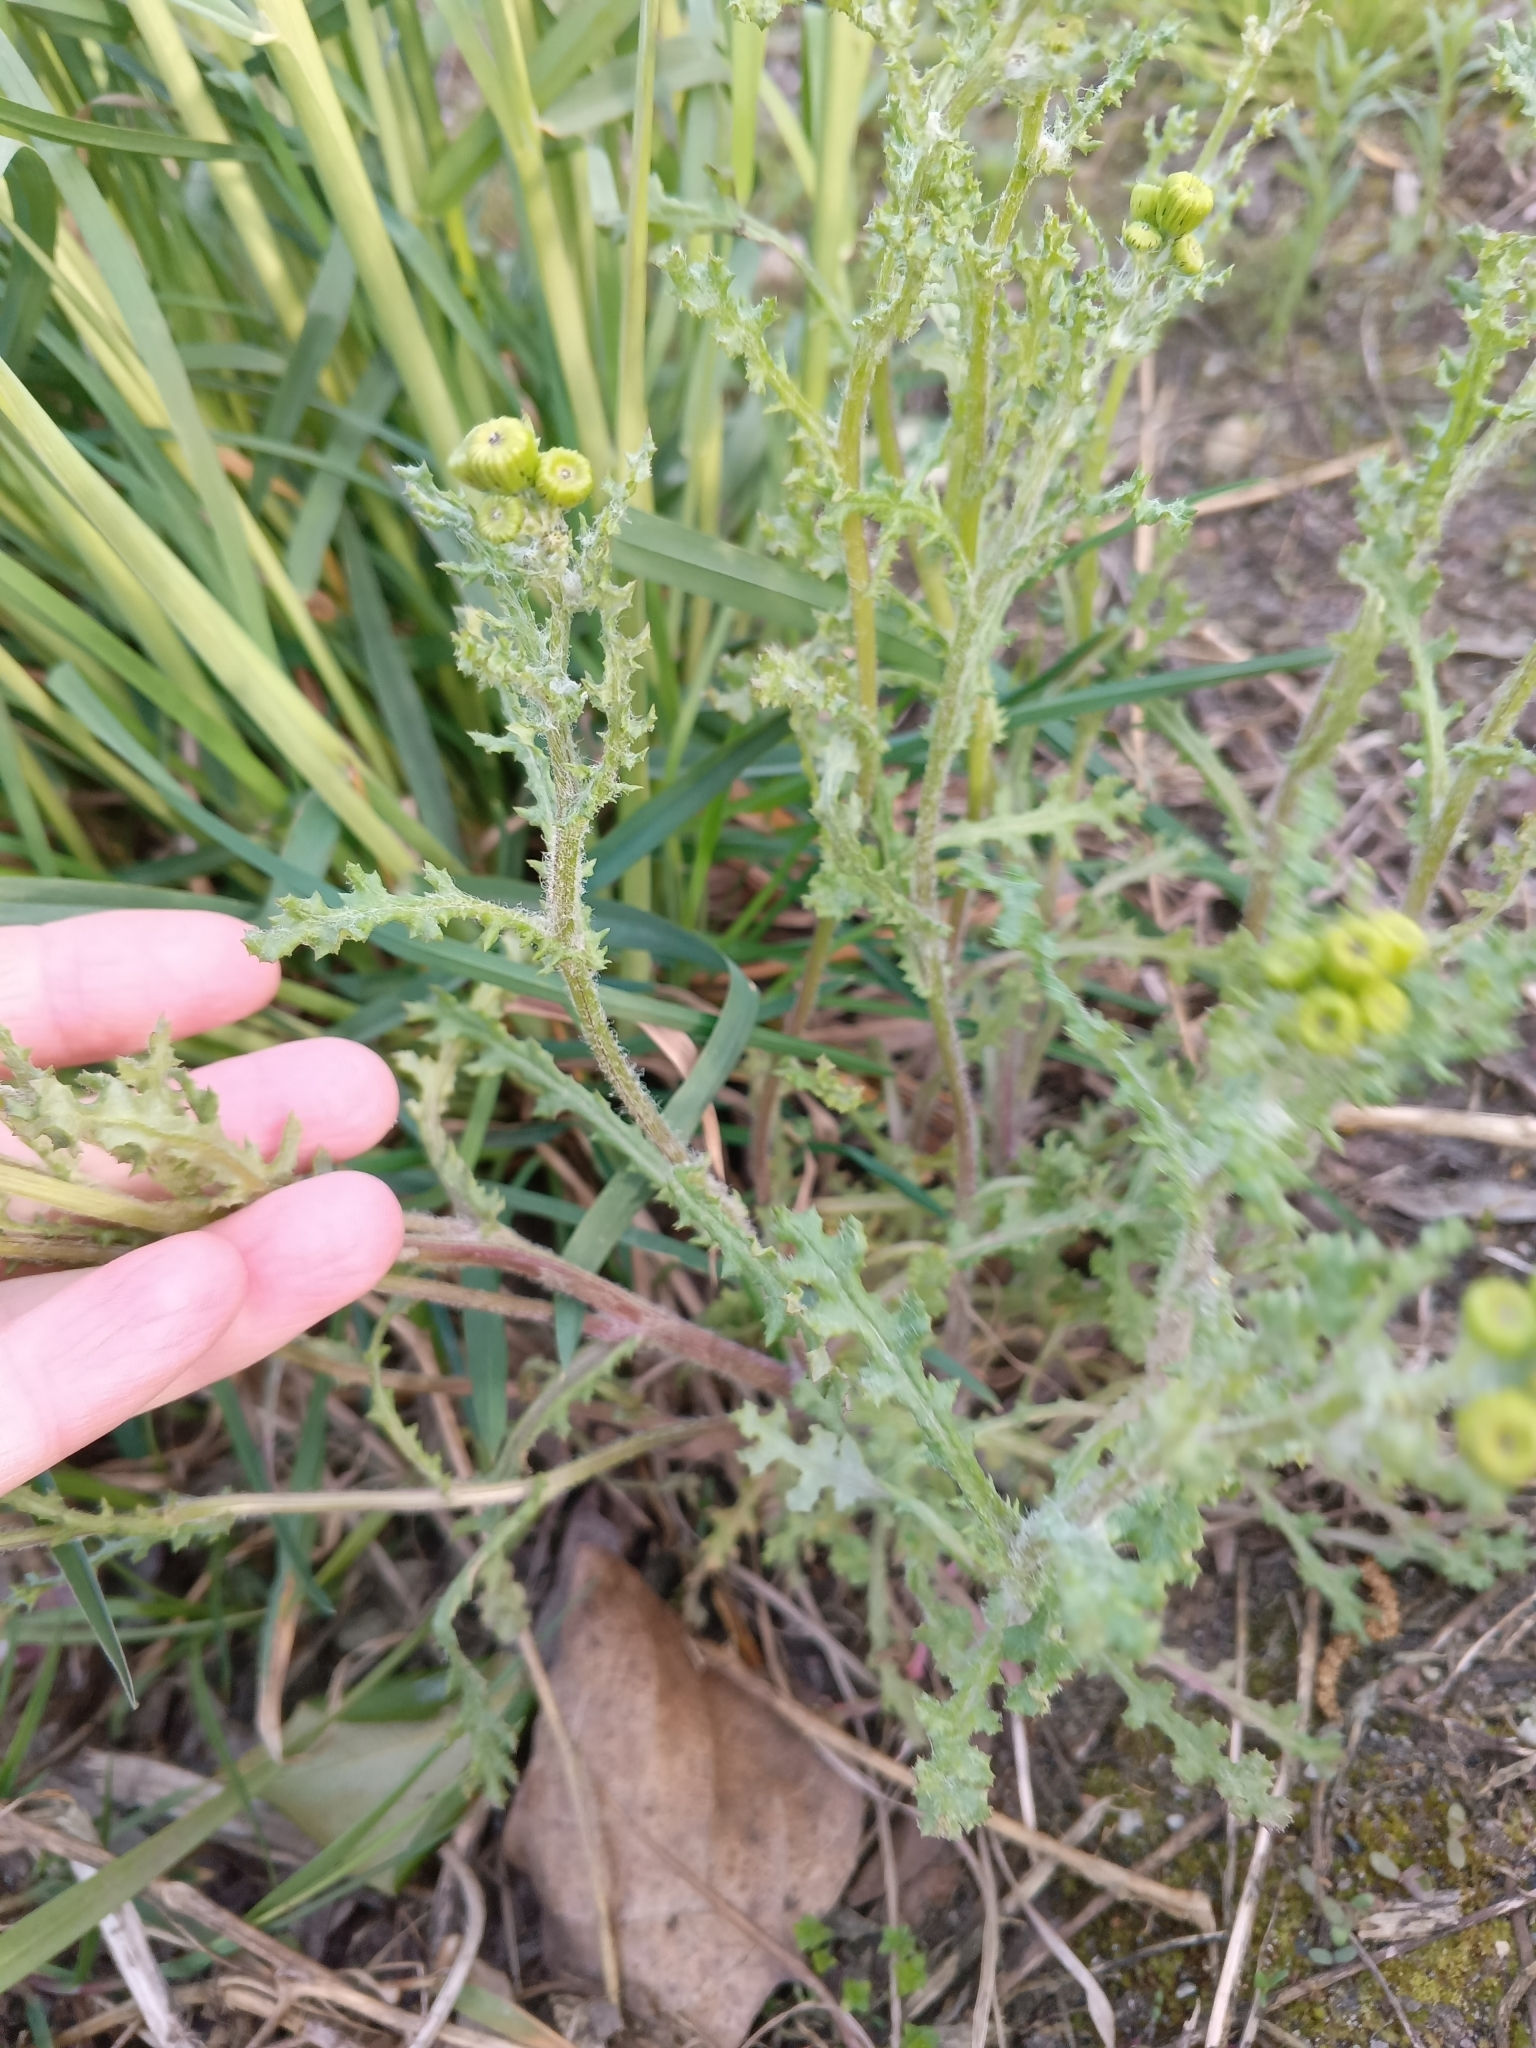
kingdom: Plantae
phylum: Tracheophyta
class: Magnoliopsida
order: Asterales
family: Asteraceae
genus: Senecio
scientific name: Senecio vernalis
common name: Eastern groundsel
